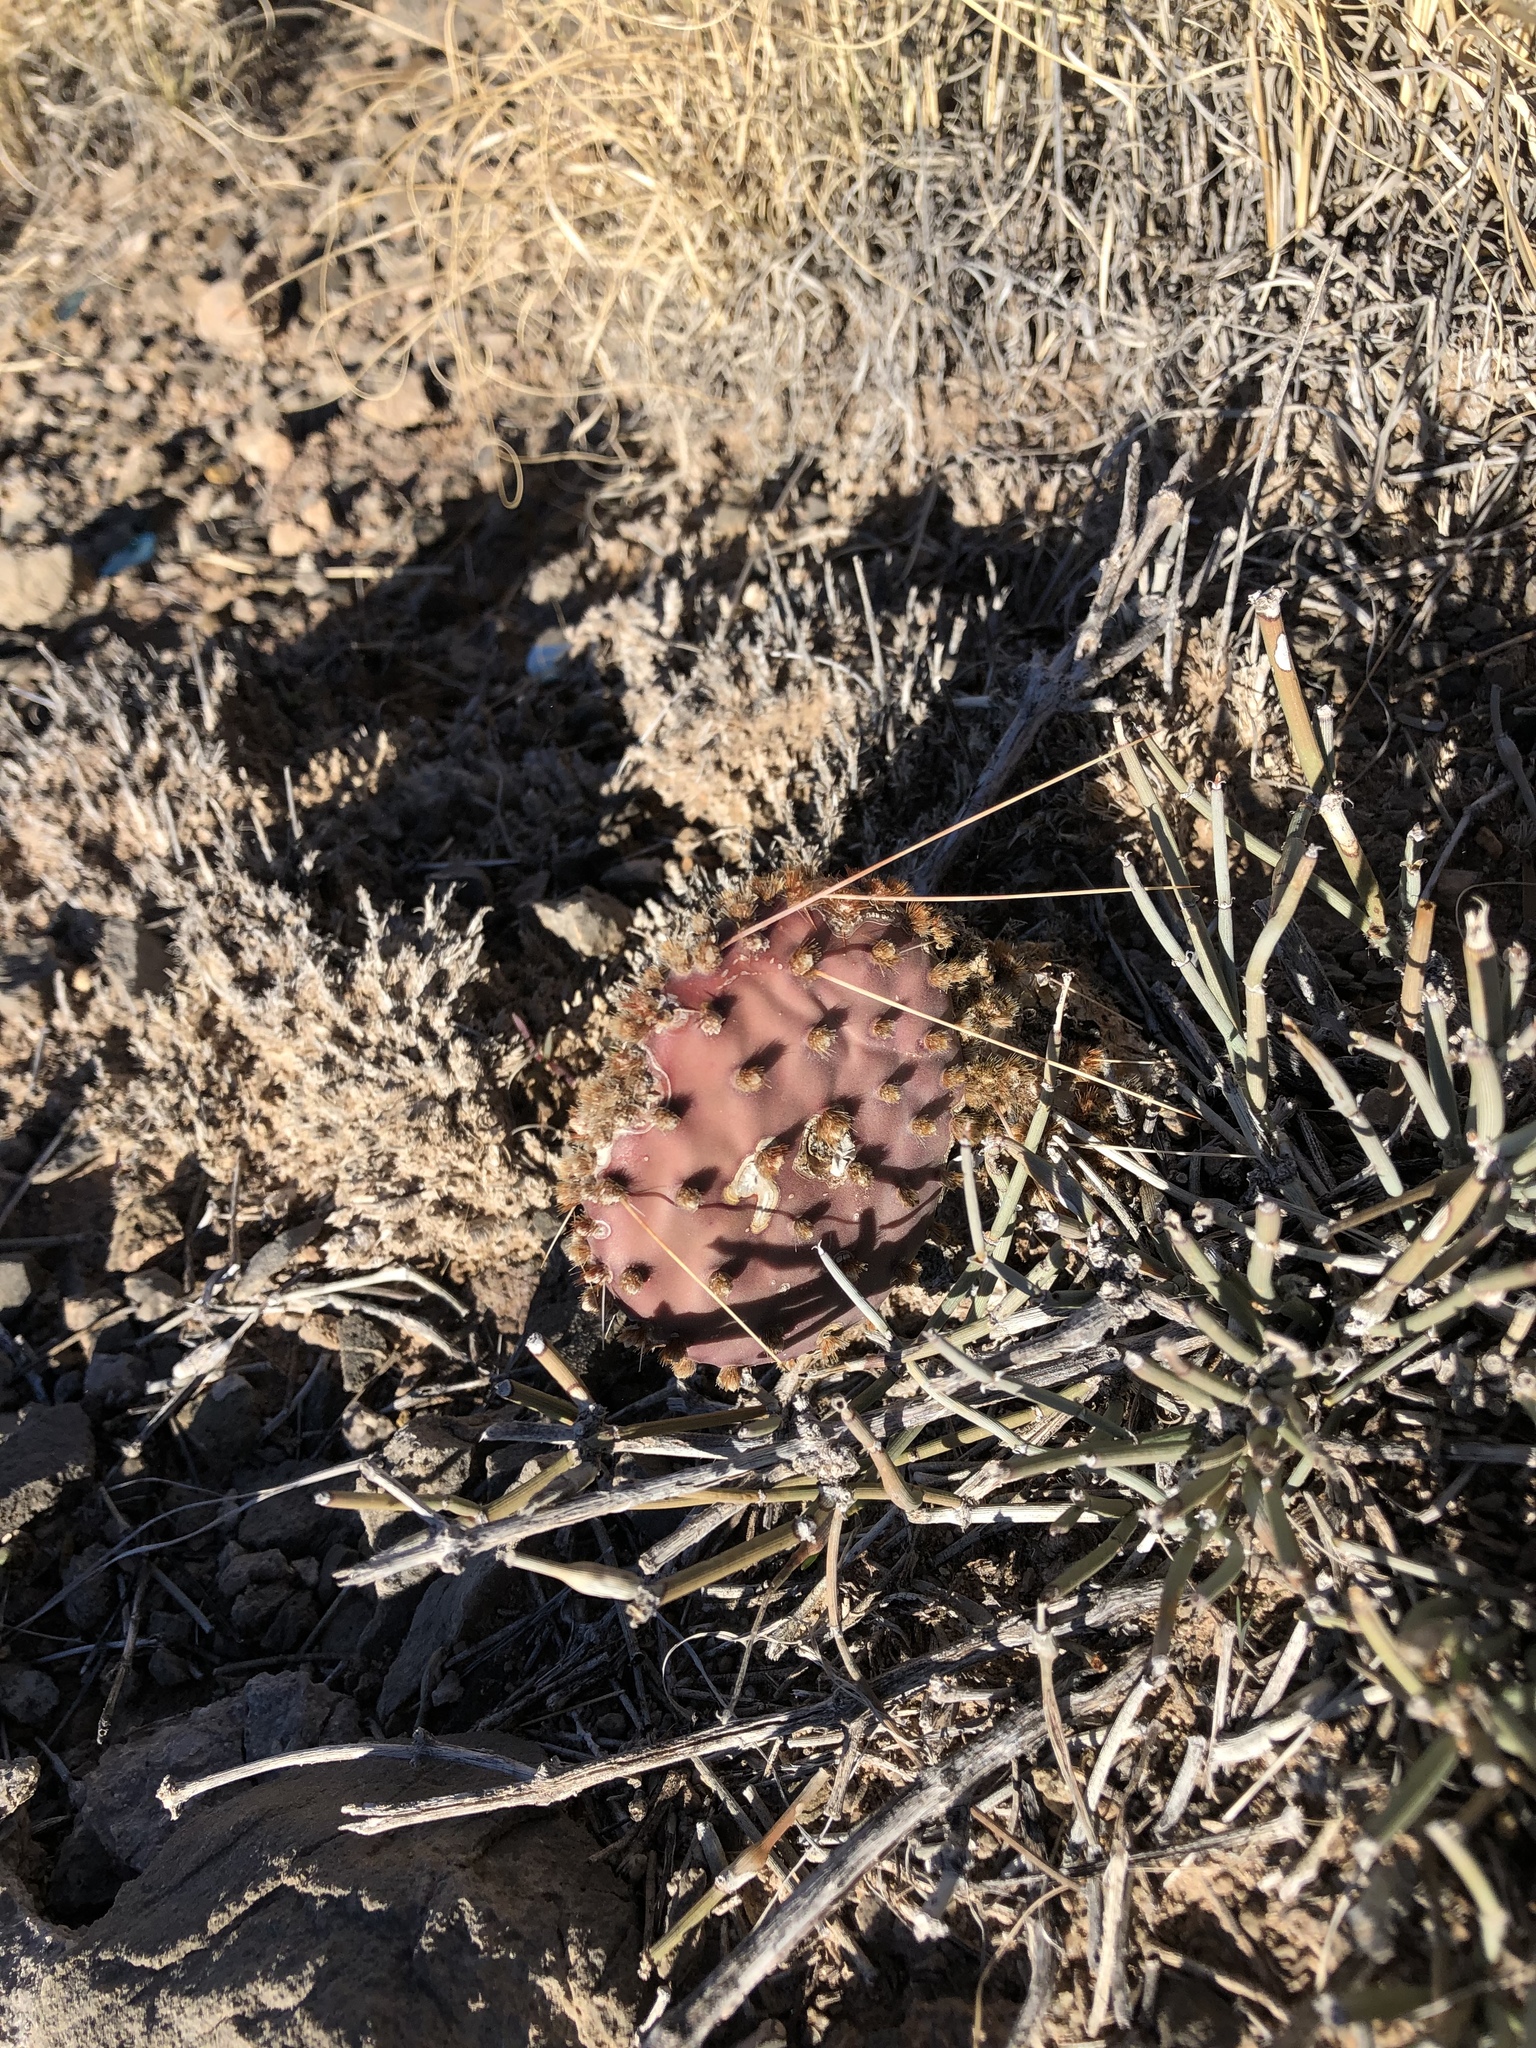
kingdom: Plantae
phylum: Tracheophyta
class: Magnoliopsida
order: Caryophyllales
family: Cactaceae
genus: Opuntia
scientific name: Opuntia macrocentra
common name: Purple prickly-pear
